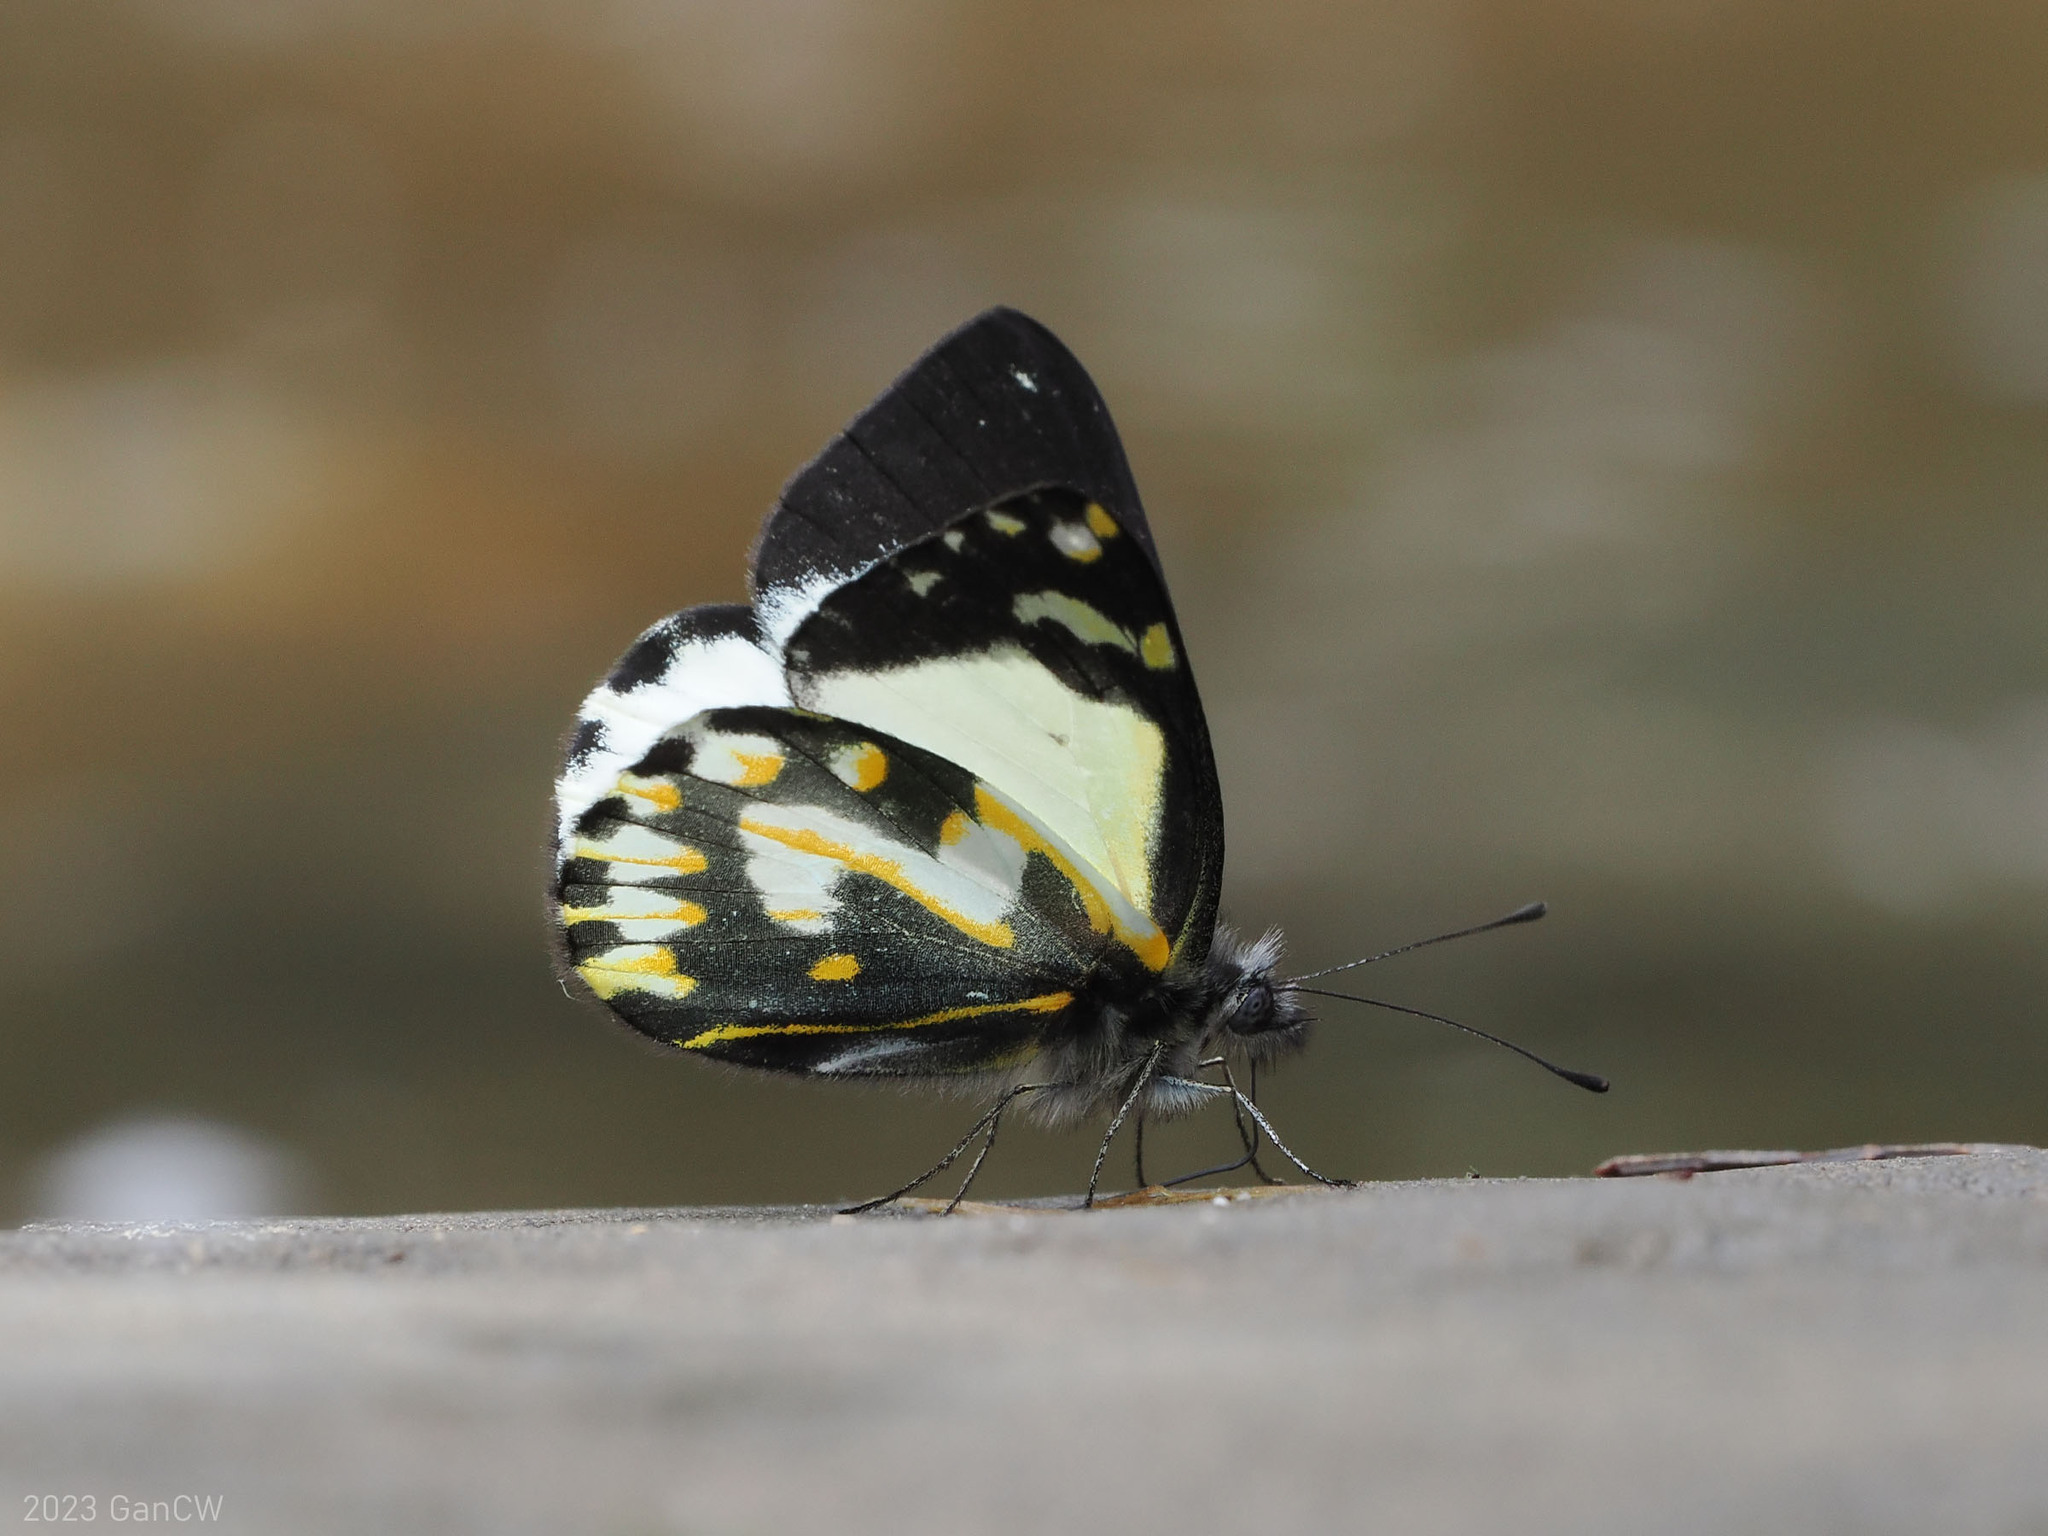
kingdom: Animalia
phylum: Arthropoda
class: Insecta
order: Lepidoptera
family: Pieridae
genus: Delias
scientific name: Delias catisa
